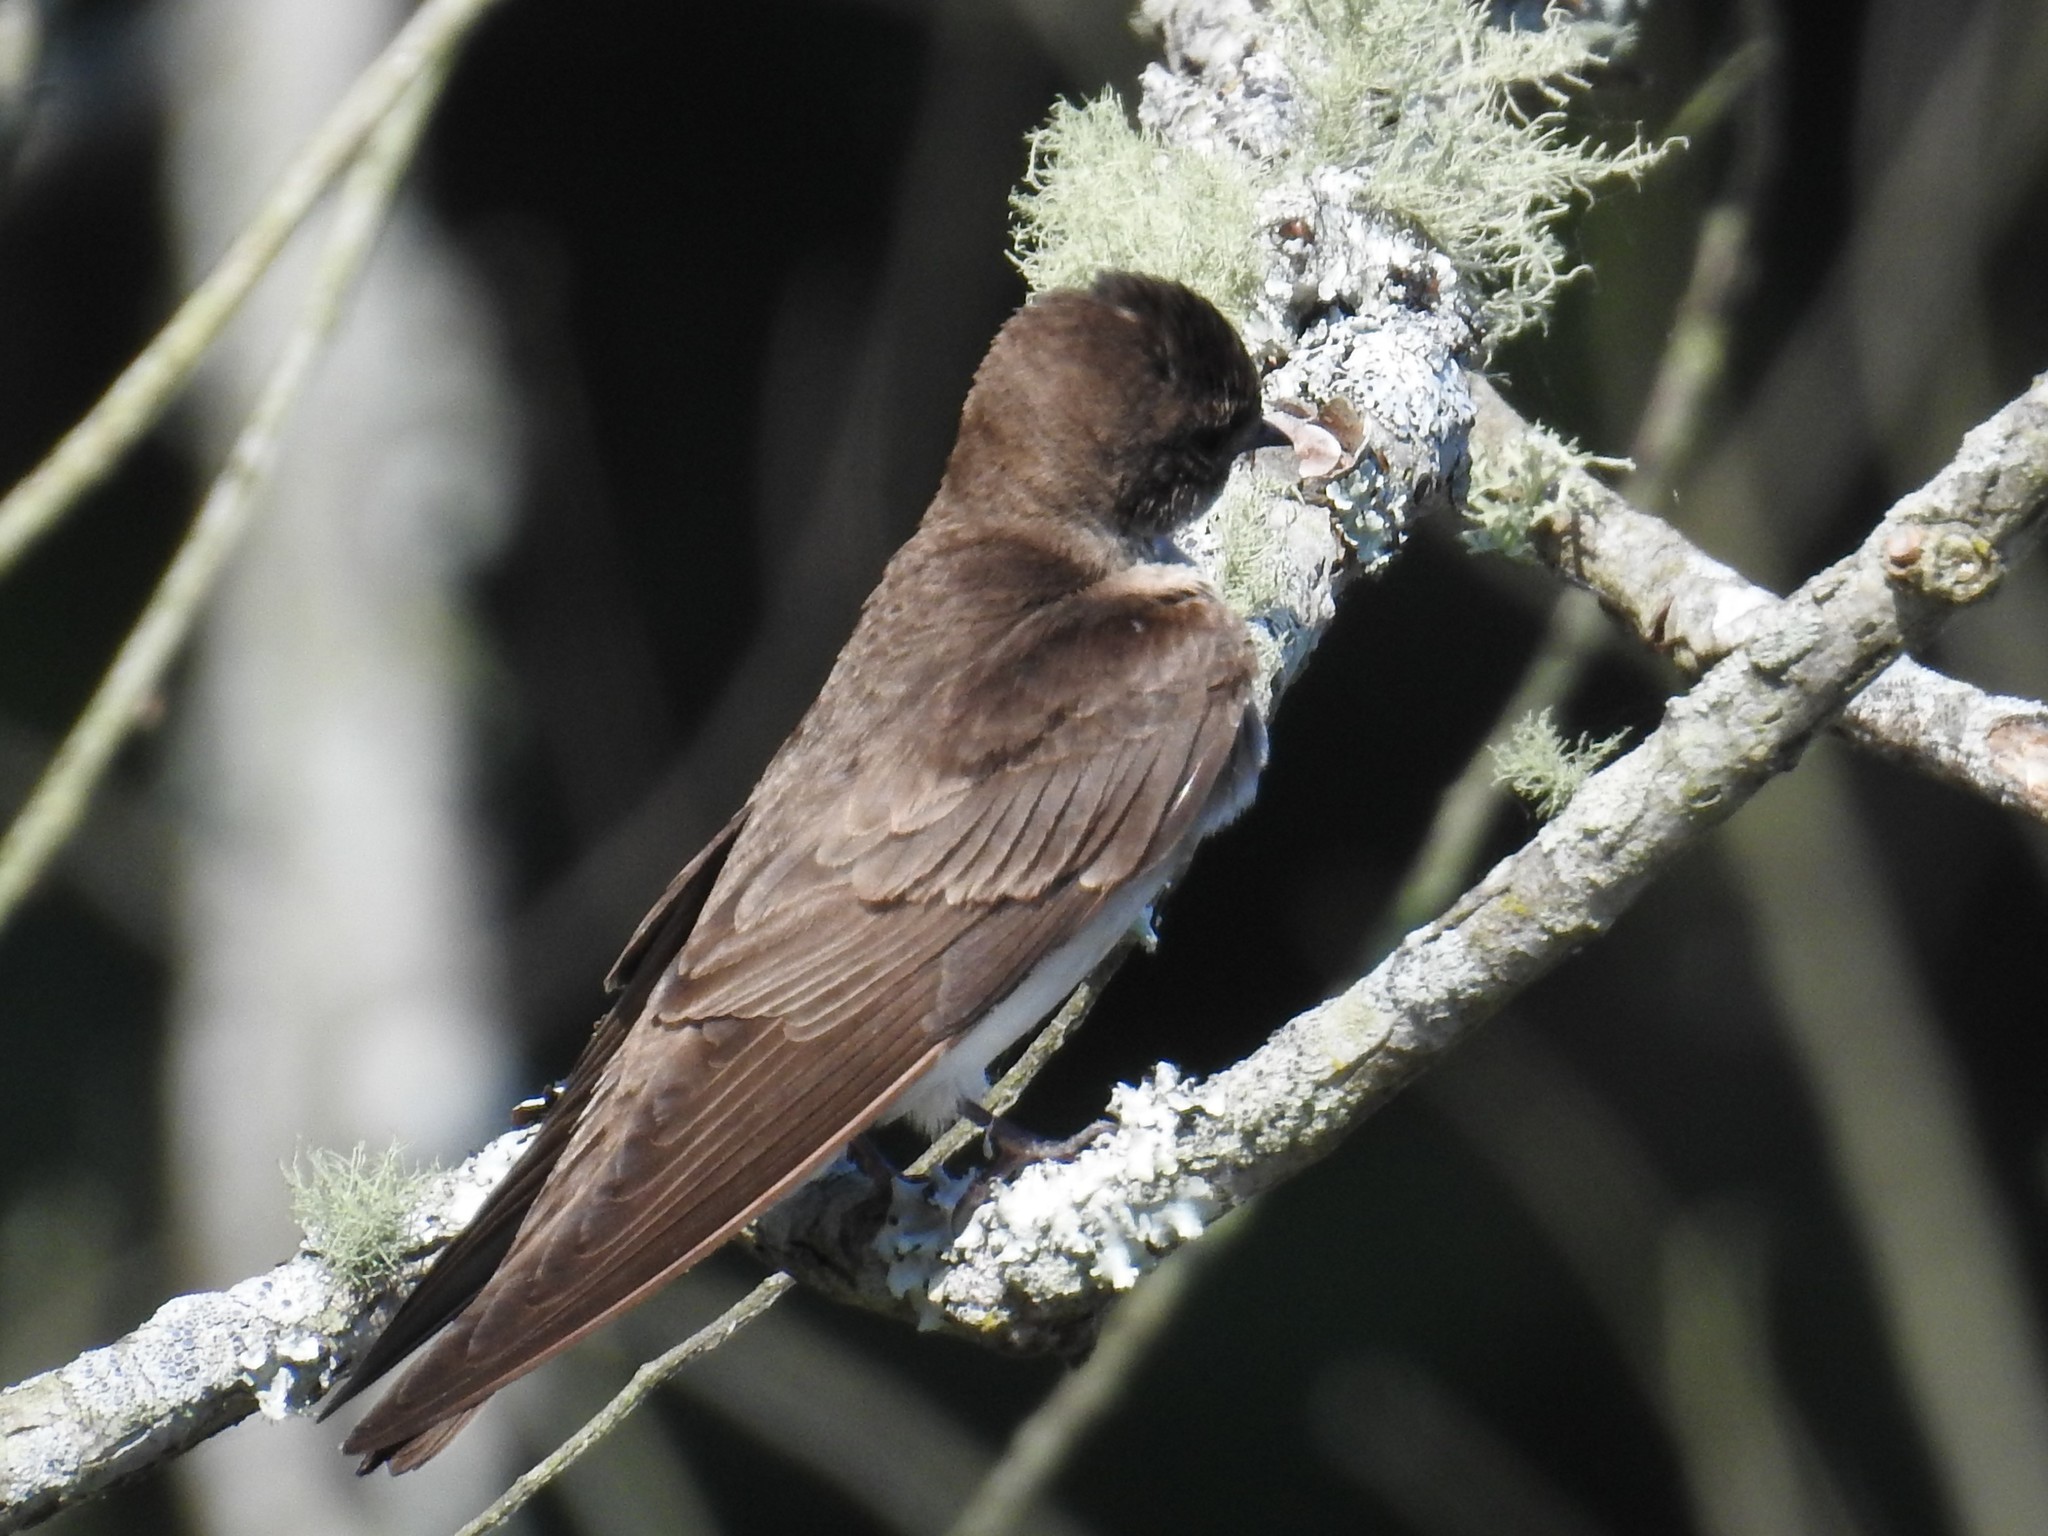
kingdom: Animalia
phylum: Chordata
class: Aves
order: Passeriformes
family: Hirundinidae
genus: Stelgidopteryx
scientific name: Stelgidopteryx serripennis
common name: Northern rough-winged swallow
